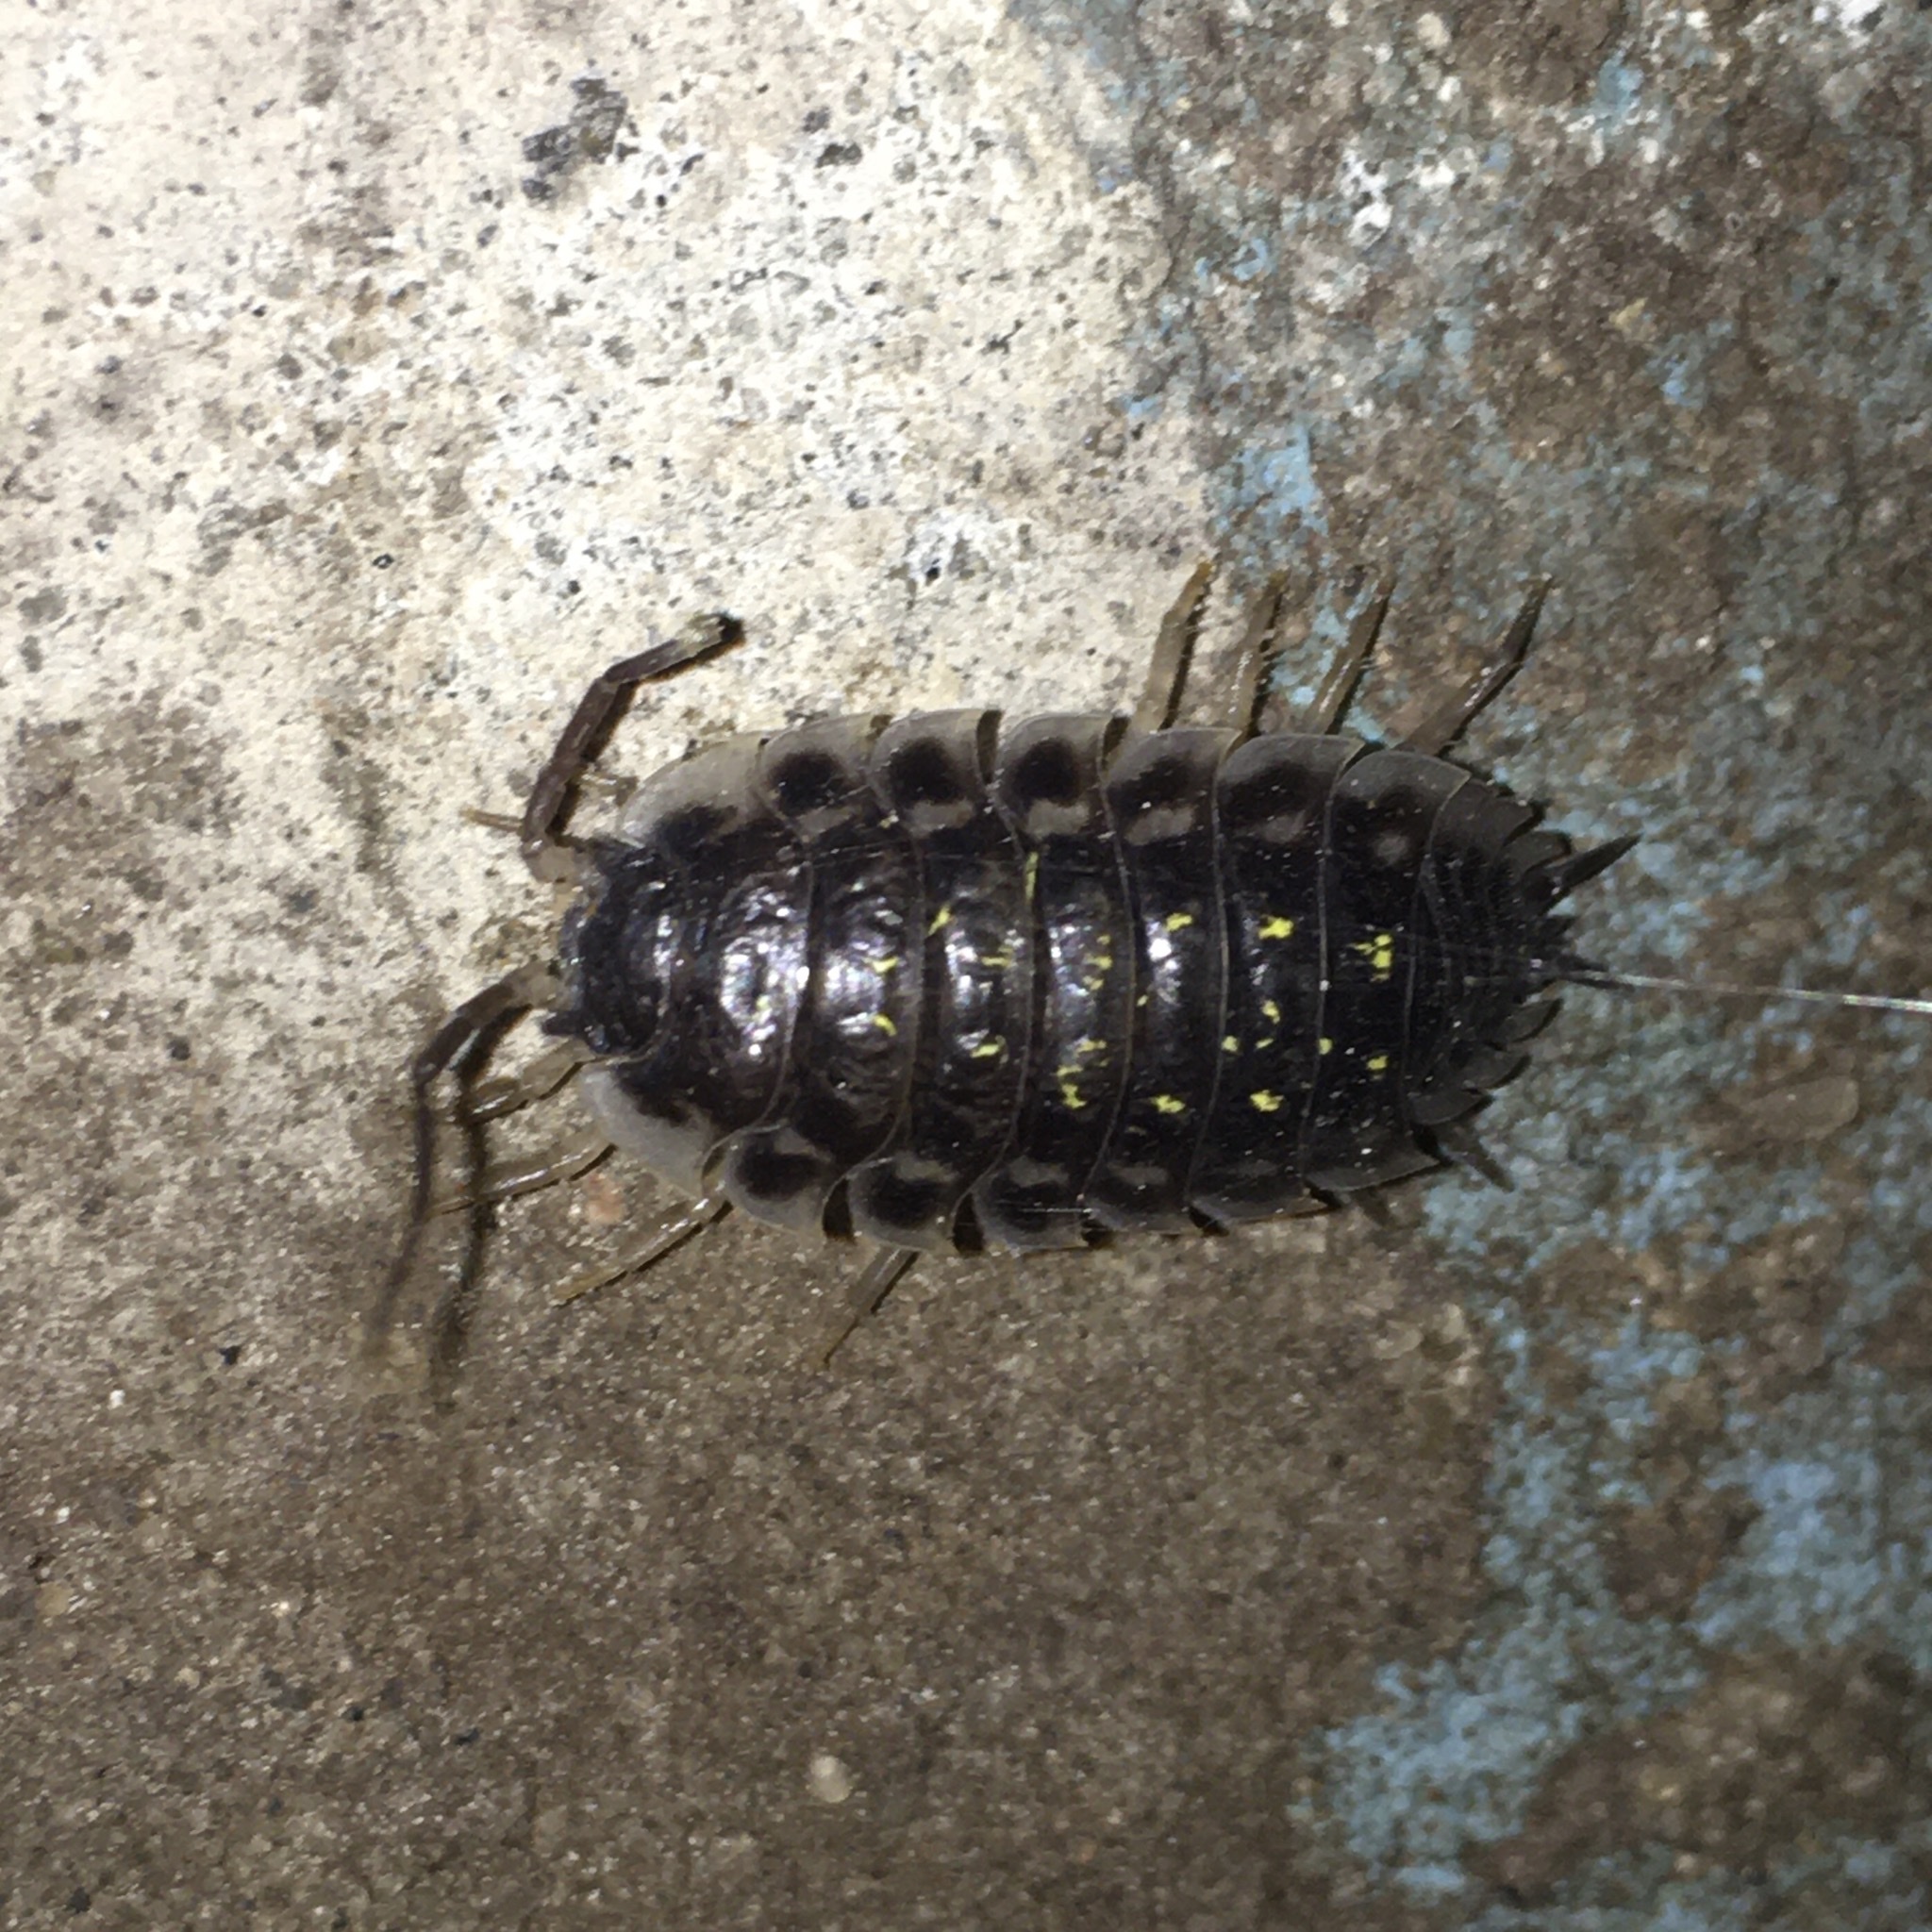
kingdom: Animalia
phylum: Arthropoda
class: Malacostraca
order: Isopoda
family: Oniscidae
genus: Oniscus
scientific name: Oniscus asellus
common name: Common shiny woodlouse
